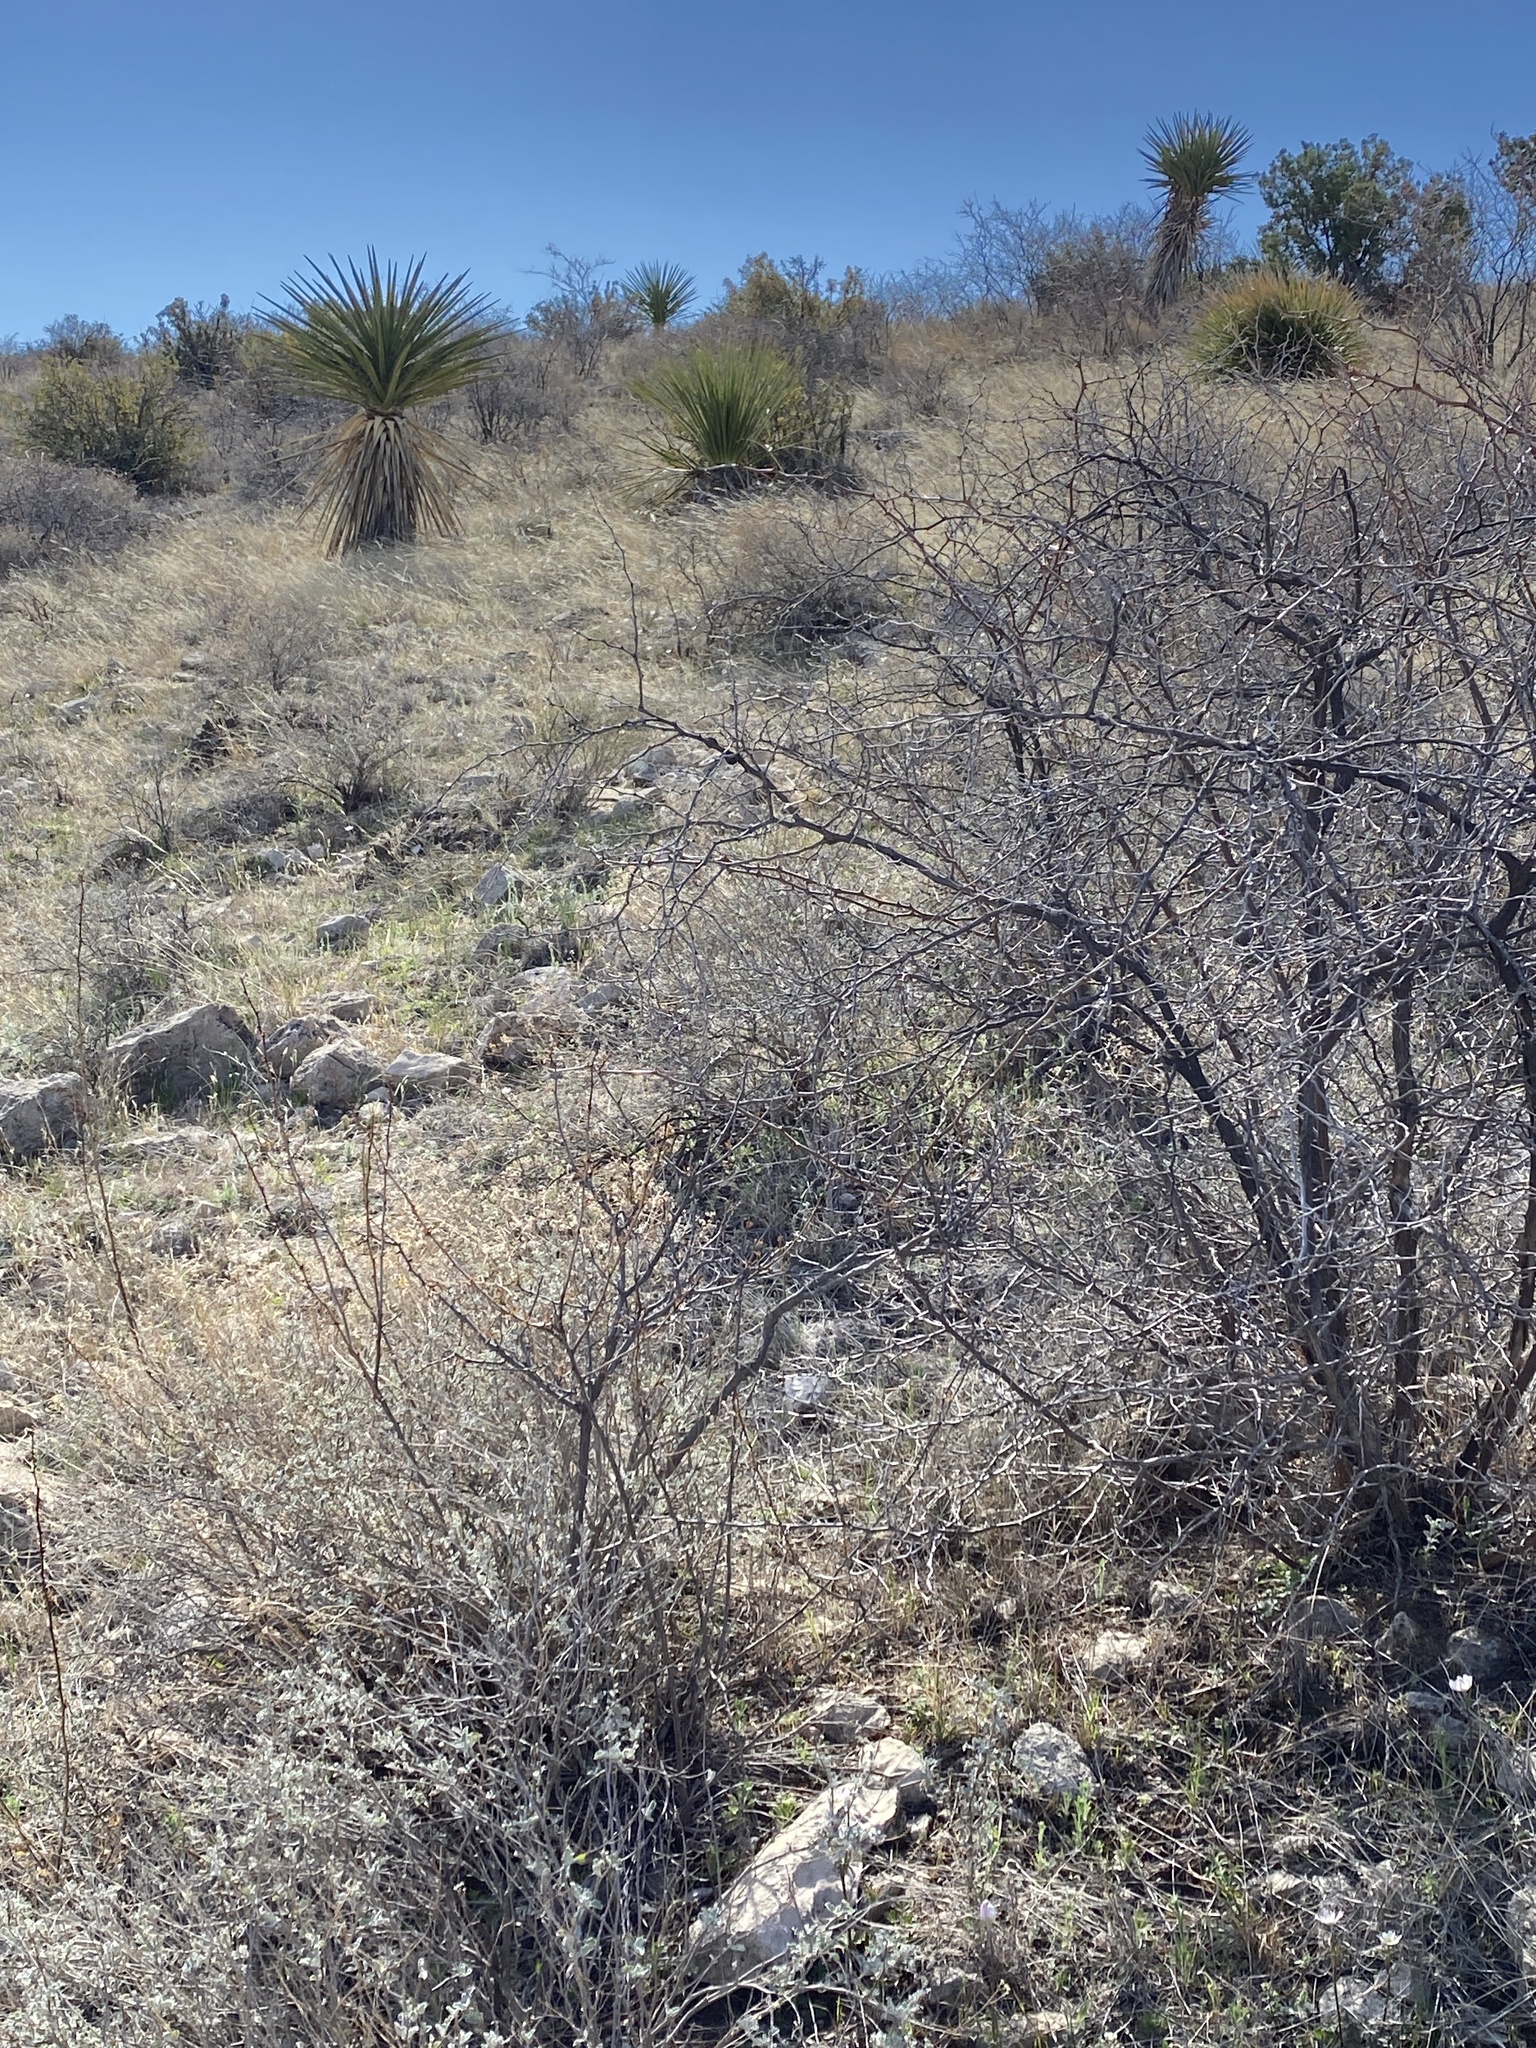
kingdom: Plantae
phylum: Tracheophyta
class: Magnoliopsida
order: Ranunculales
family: Ranunculaceae
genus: Anemone
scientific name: Anemone tuberosa
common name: Desert anemone
